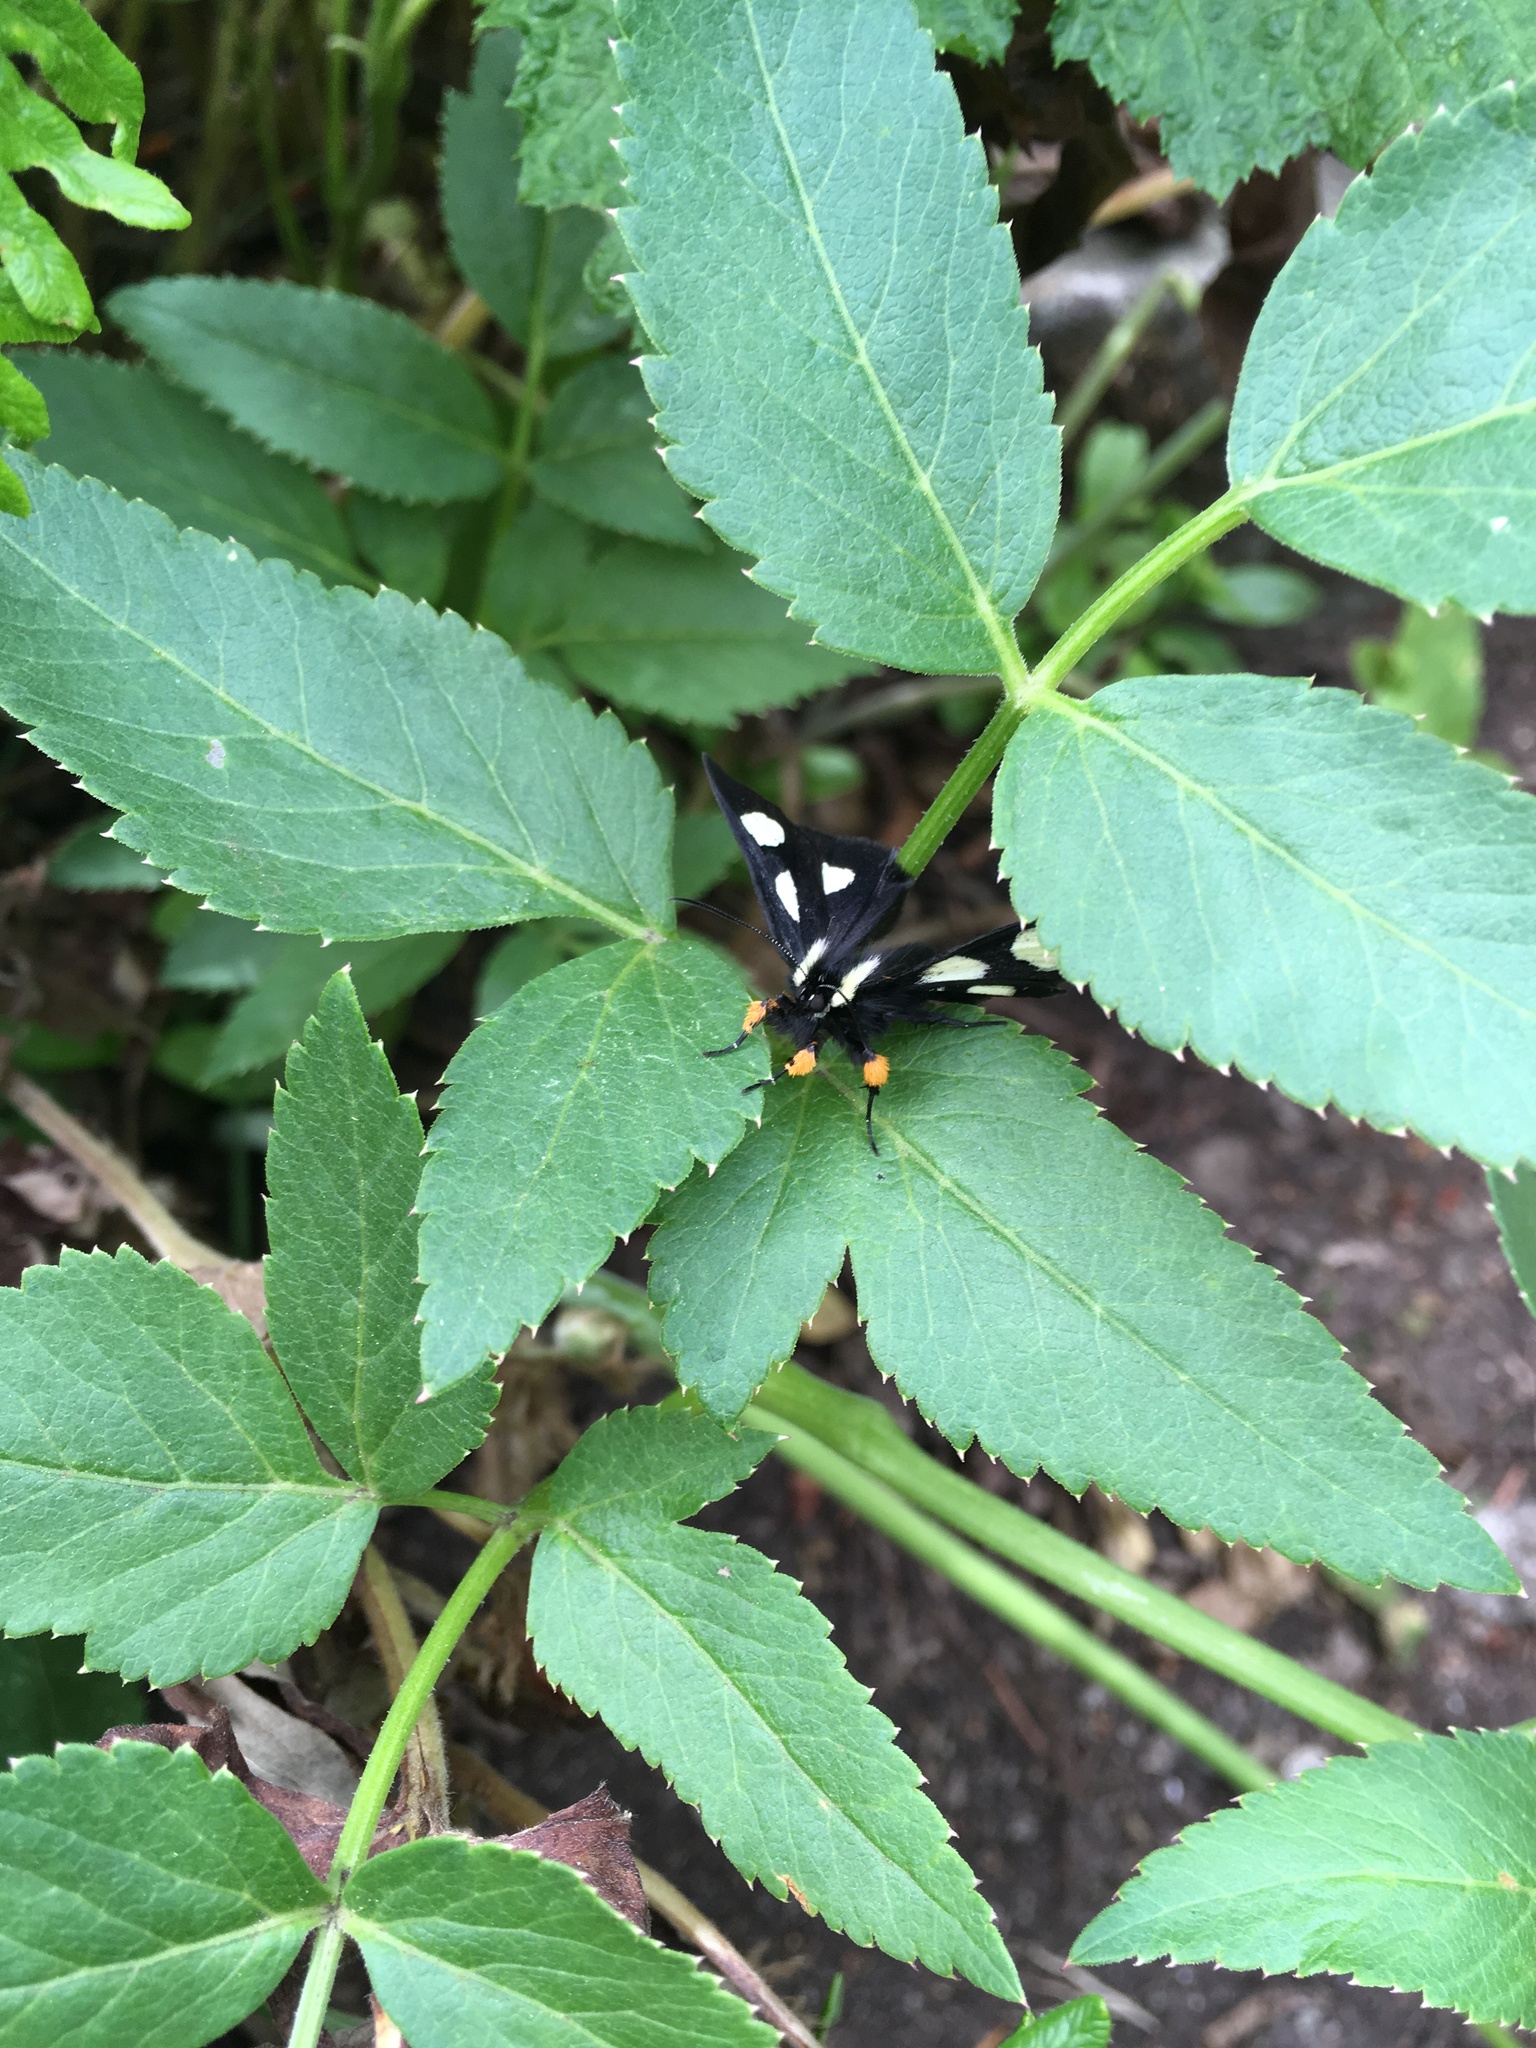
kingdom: Animalia
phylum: Arthropoda
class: Insecta
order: Lepidoptera
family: Noctuidae
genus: Alypia
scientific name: Alypia langtonii
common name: Fireweed caterpillar
